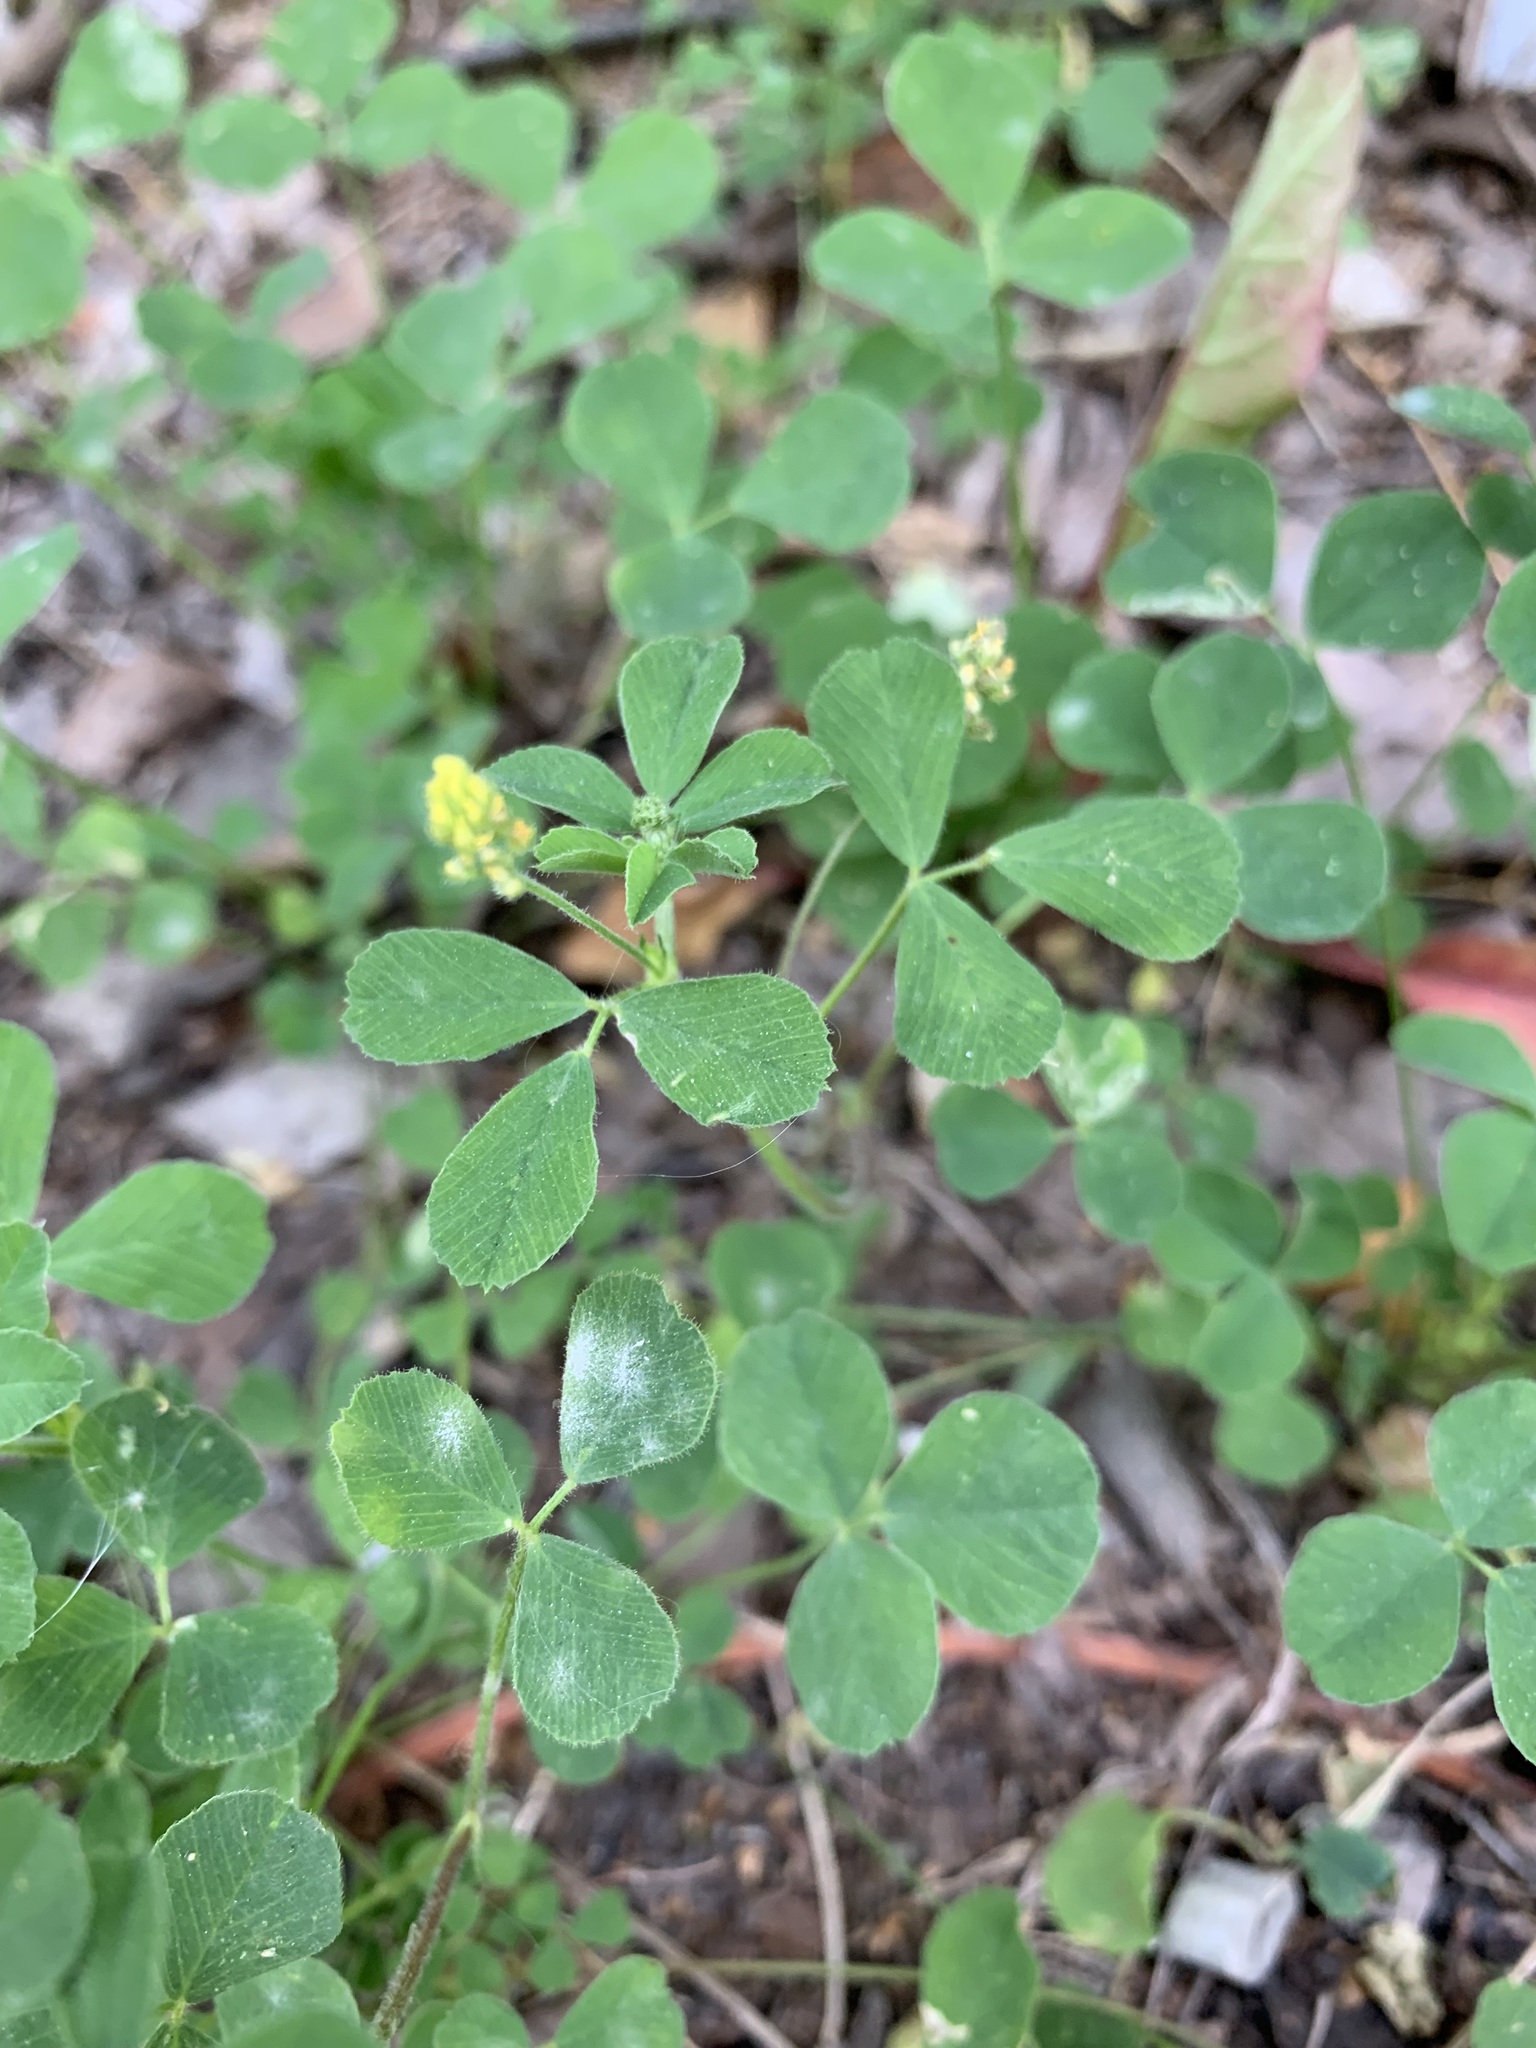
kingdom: Plantae
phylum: Tracheophyta
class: Magnoliopsida
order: Fabales
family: Fabaceae
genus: Medicago
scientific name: Medicago lupulina
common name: Black medick
